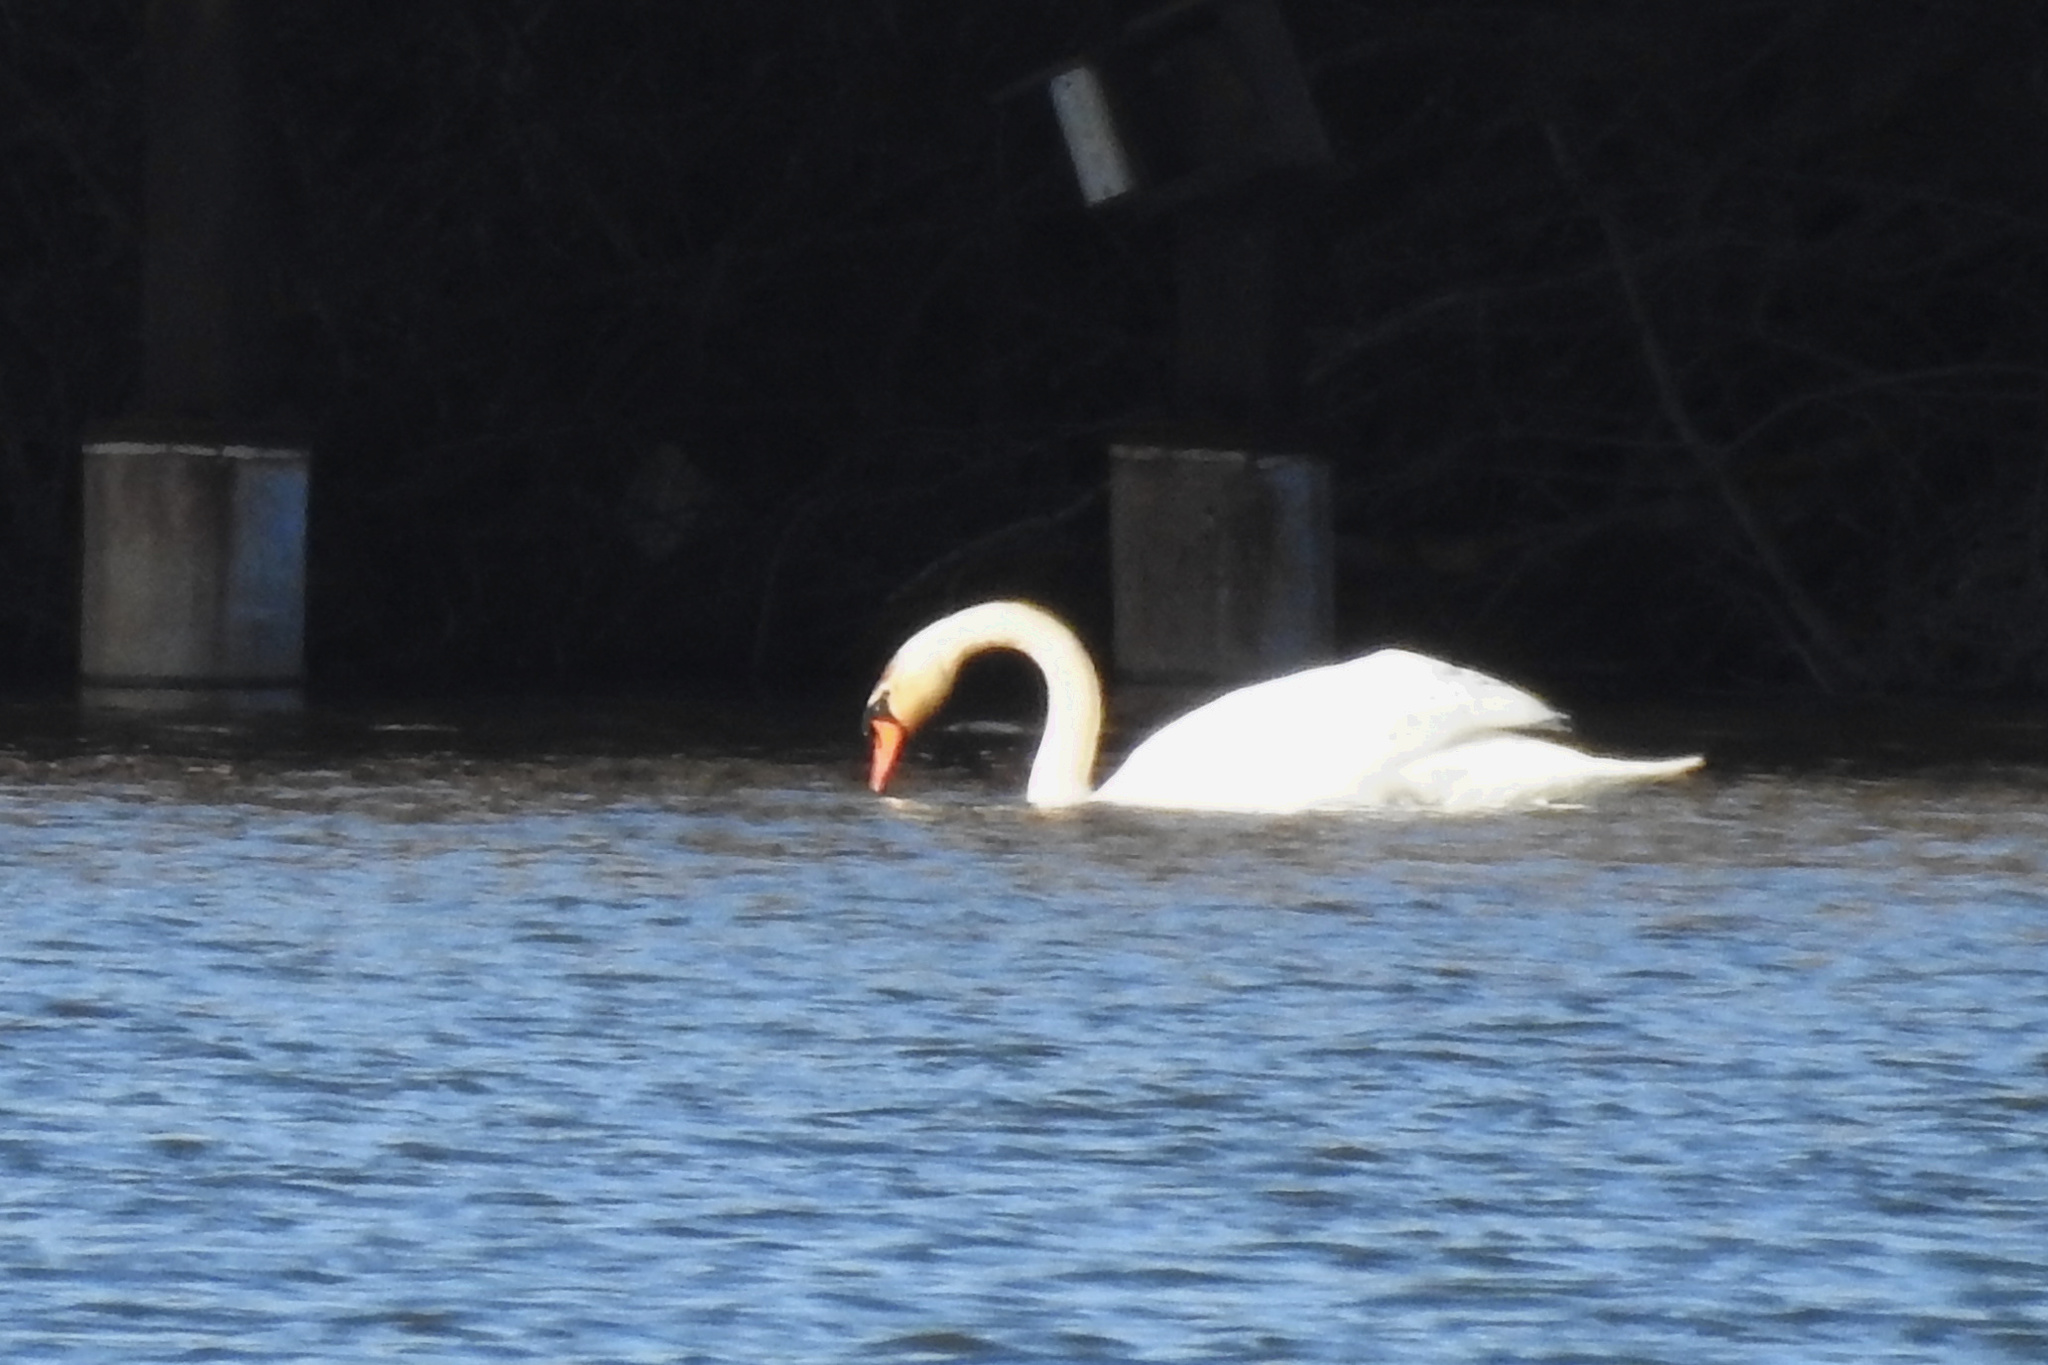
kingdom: Animalia
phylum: Chordata
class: Aves
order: Anseriformes
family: Anatidae
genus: Cygnus
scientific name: Cygnus olor
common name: Mute swan
